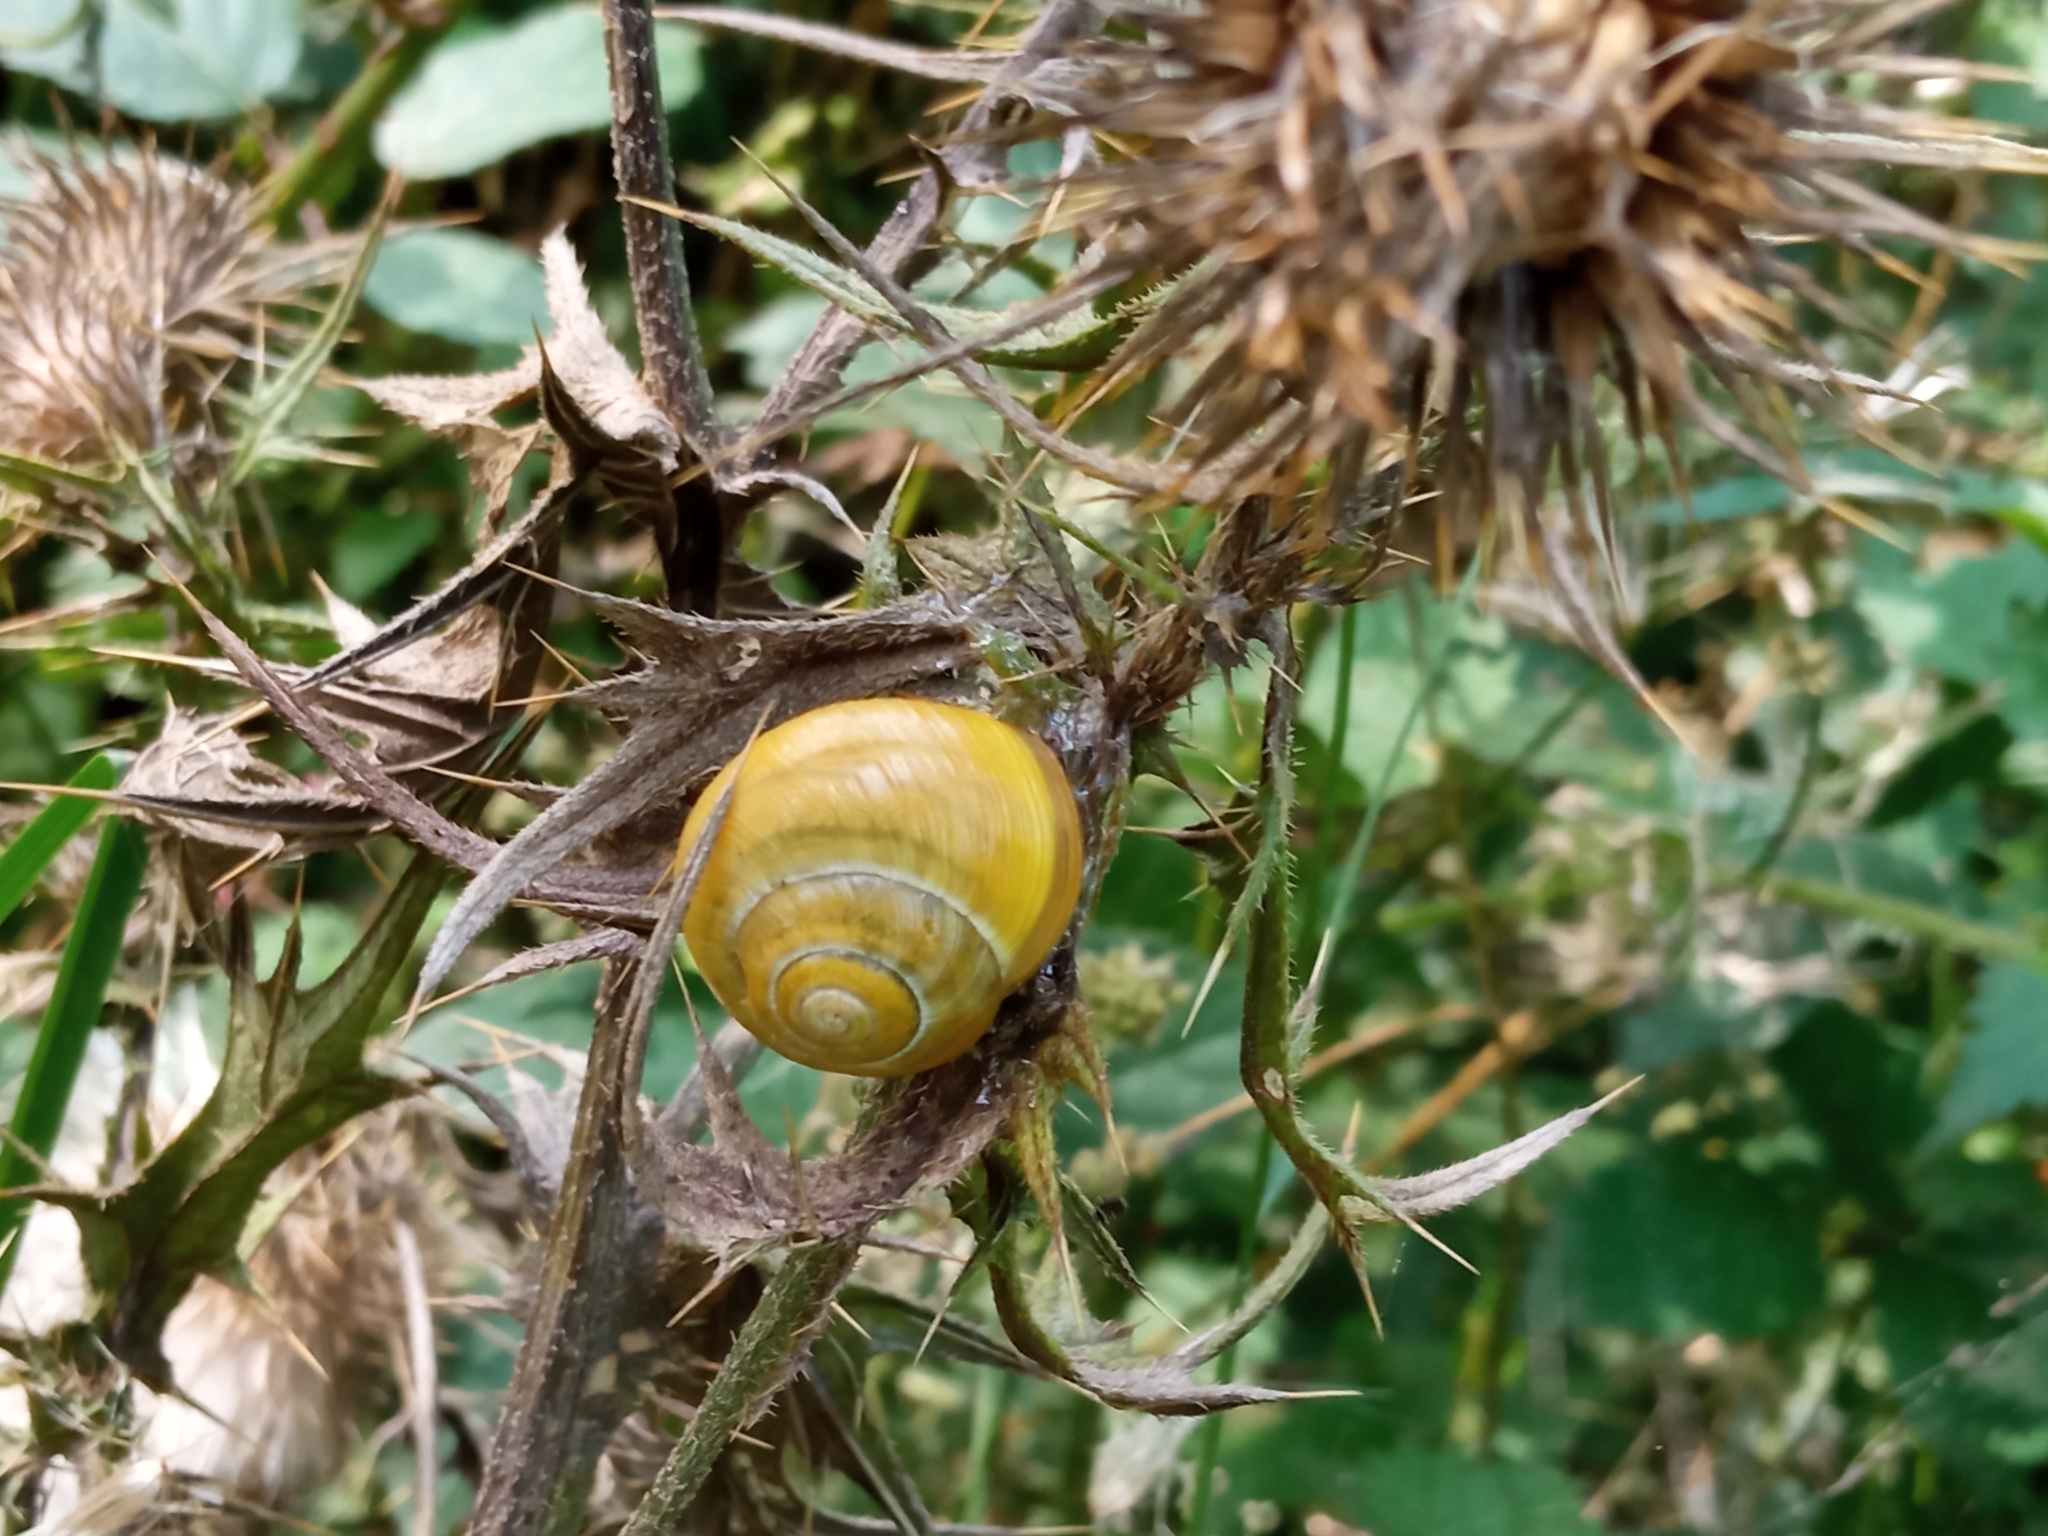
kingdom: Animalia
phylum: Mollusca
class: Gastropoda
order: Stylommatophora
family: Helicidae
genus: Cepaea
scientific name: Cepaea
